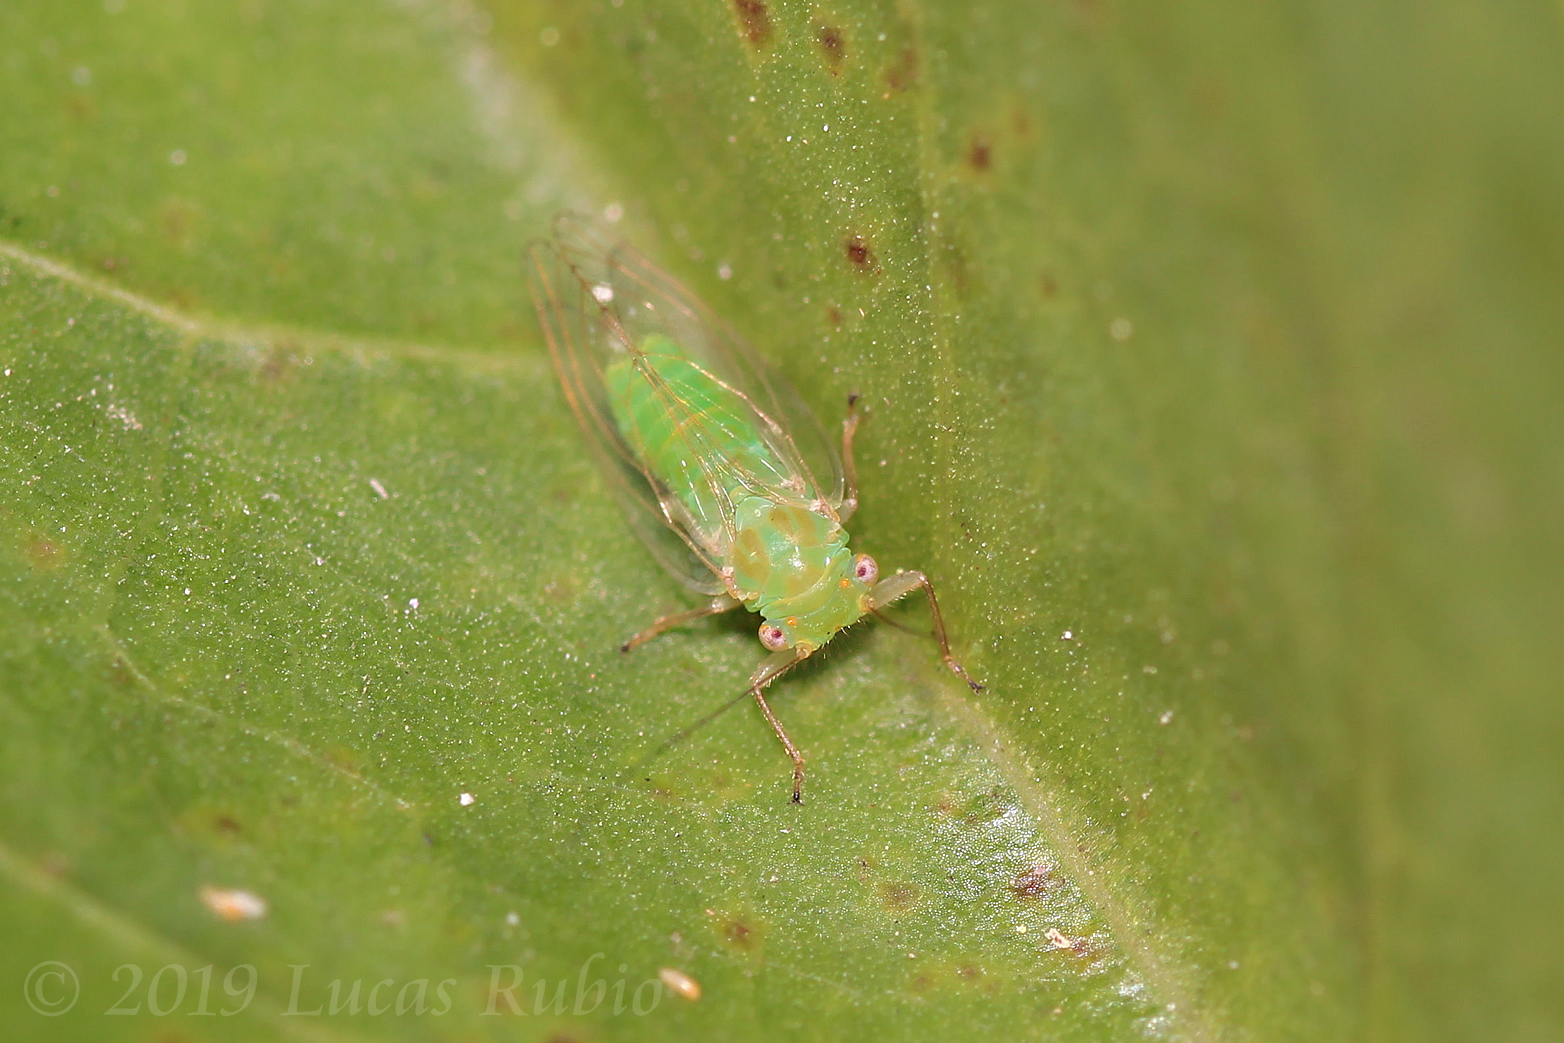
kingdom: Animalia
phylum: Arthropoda
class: Insecta
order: Hemiptera
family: Psyllidae
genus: Platycorypha
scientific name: Platycorypha erythrinae
